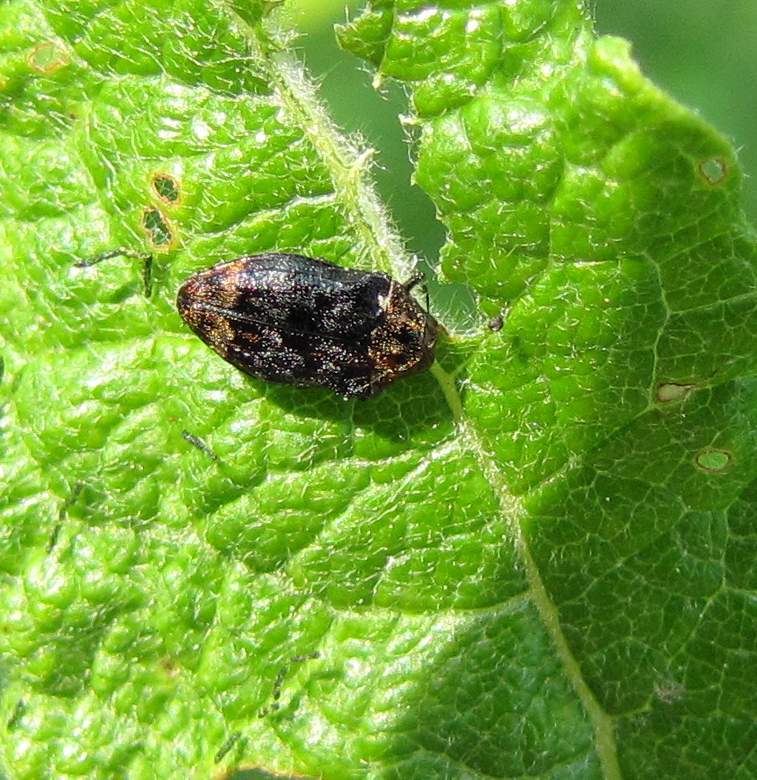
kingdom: Animalia
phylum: Arthropoda
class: Insecta
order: Coleoptera
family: Buprestidae
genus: Brachys
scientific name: Brachys aerosus
